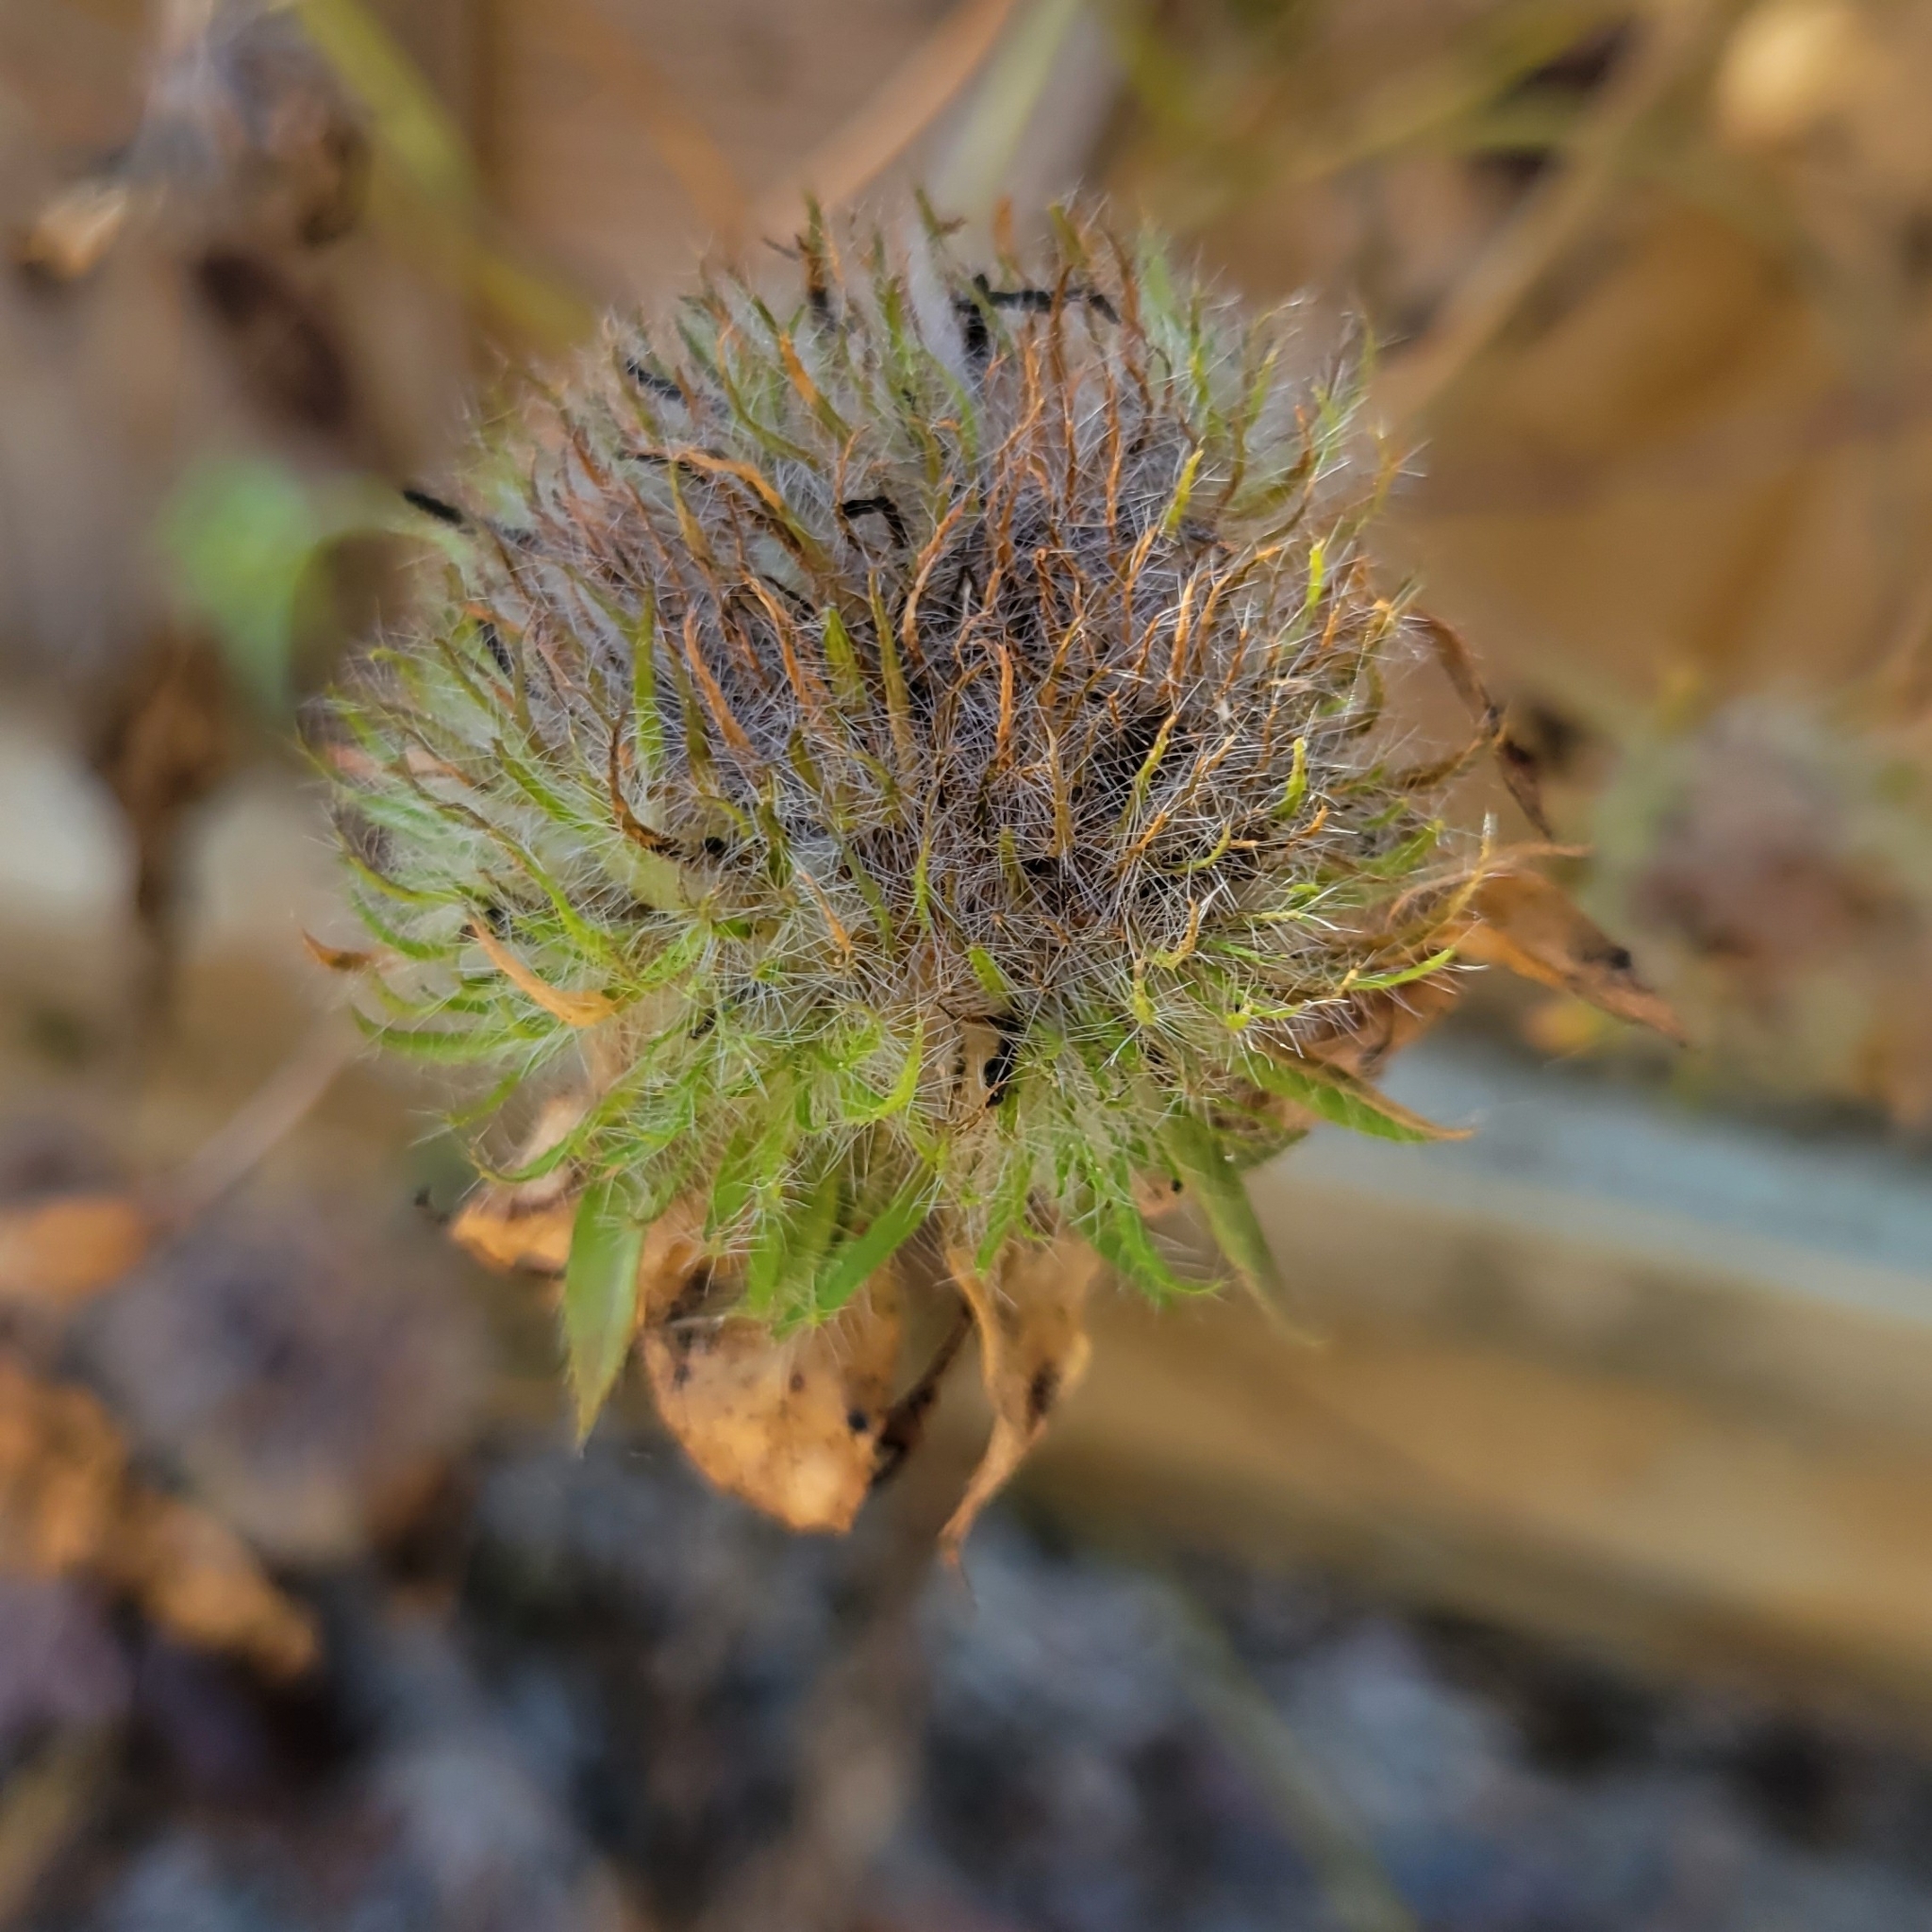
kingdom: Plantae
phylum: Tracheophyta
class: Magnoliopsida
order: Solanales
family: Convolvulaceae
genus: Jacquemontia
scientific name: Jacquemontia tamnifolia
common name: Hairy clustervine
